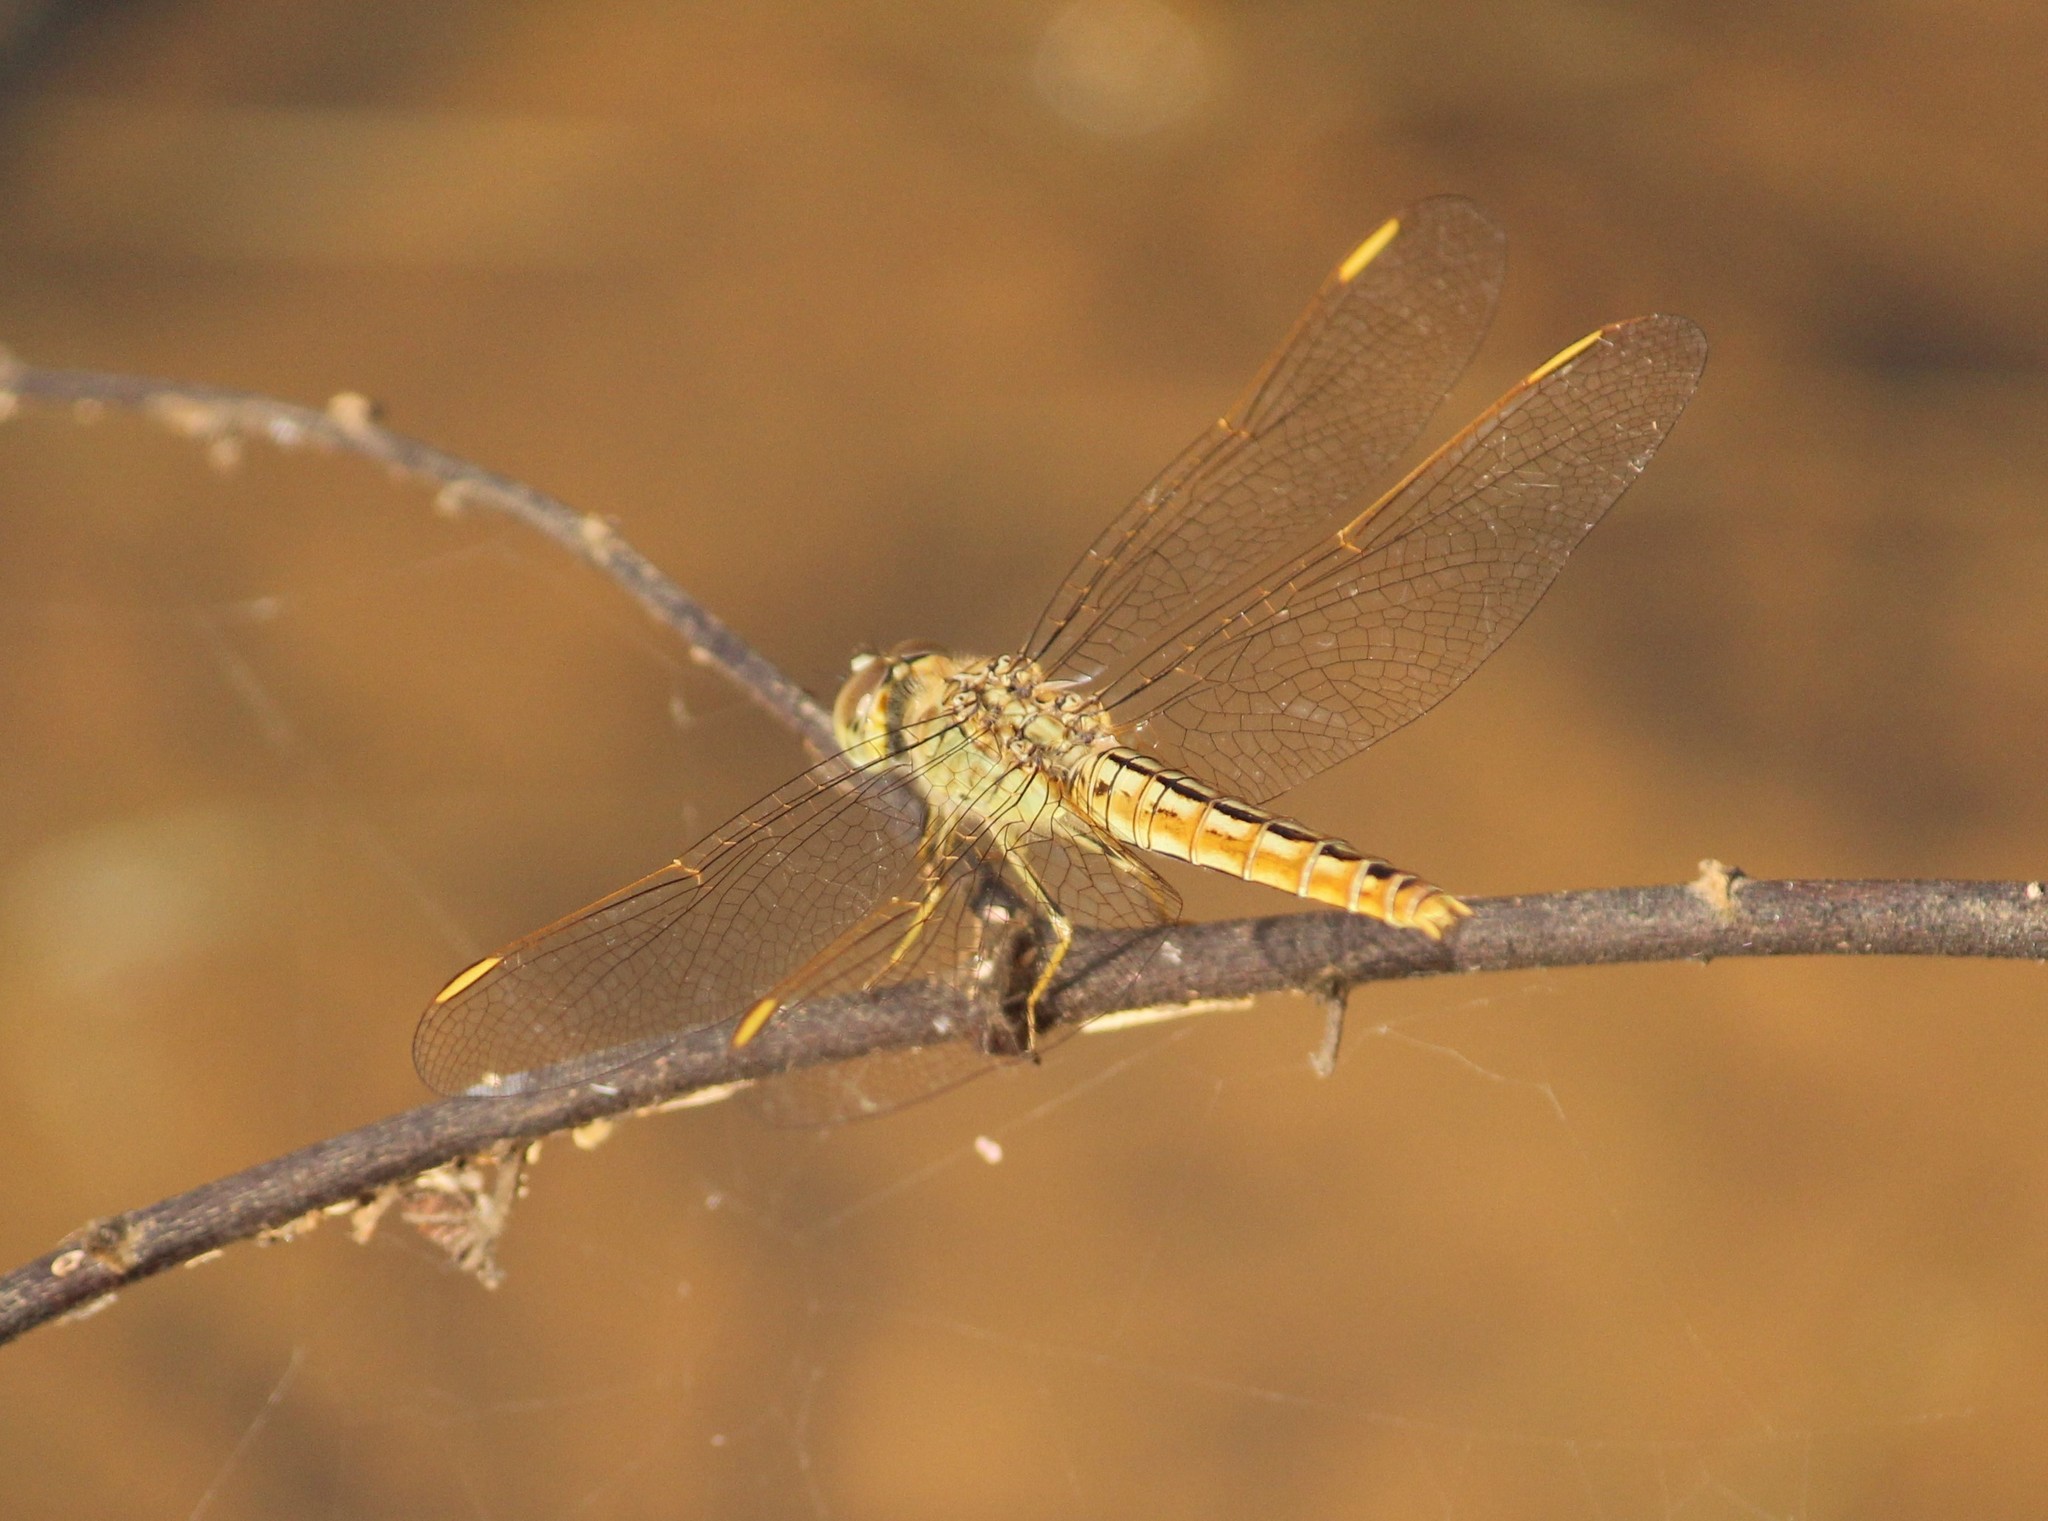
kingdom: Animalia
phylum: Arthropoda
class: Insecta
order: Odonata
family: Libellulidae
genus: Brachythemis
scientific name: Brachythemis contaminata
